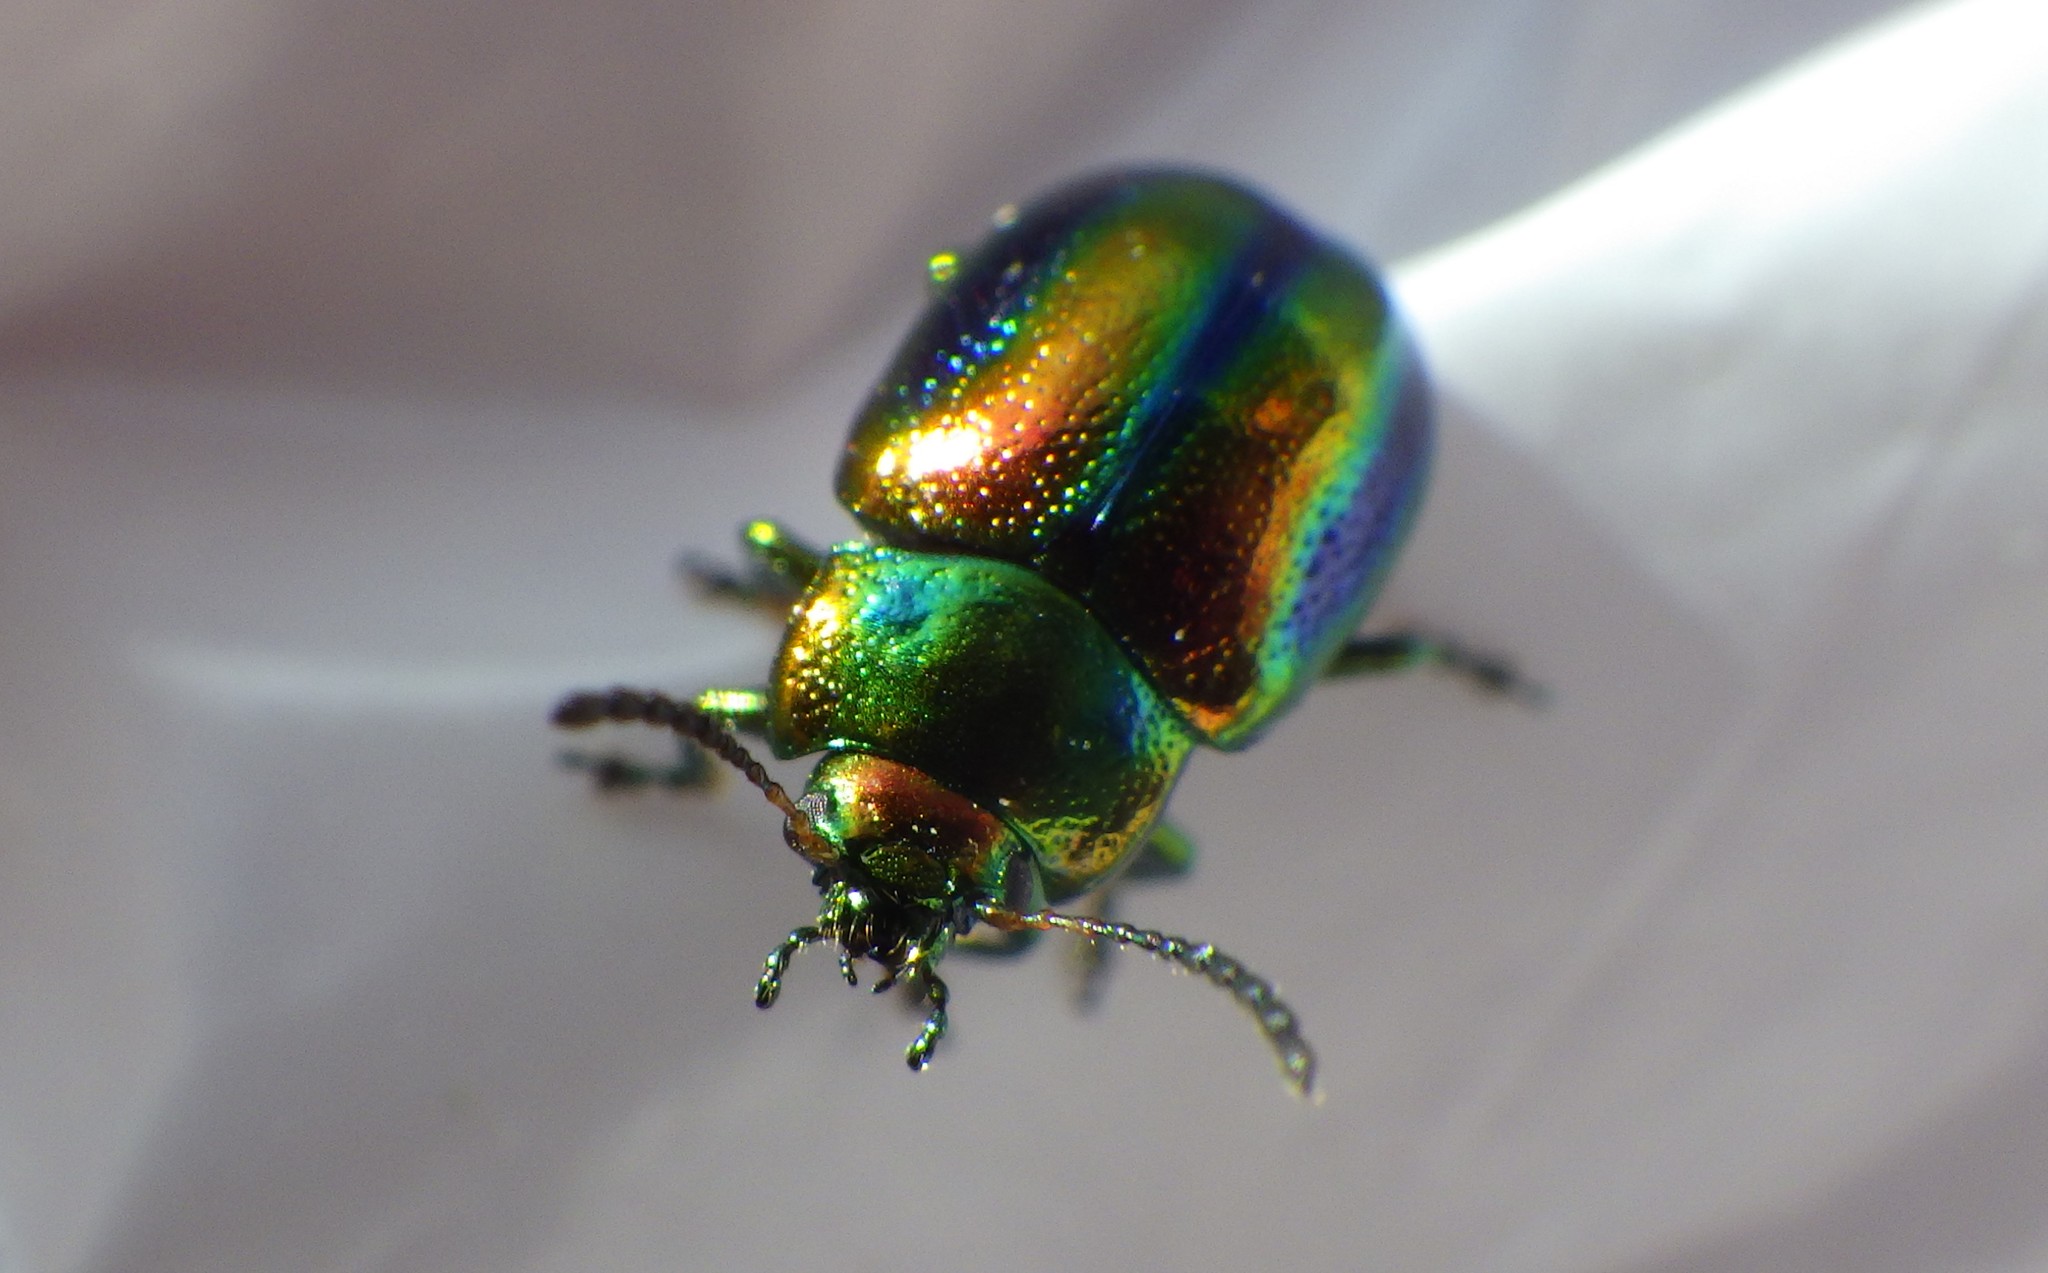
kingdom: Animalia
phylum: Arthropoda
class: Insecta
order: Coleoptera
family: Chrysomelidae
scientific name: Chrysomelidae
